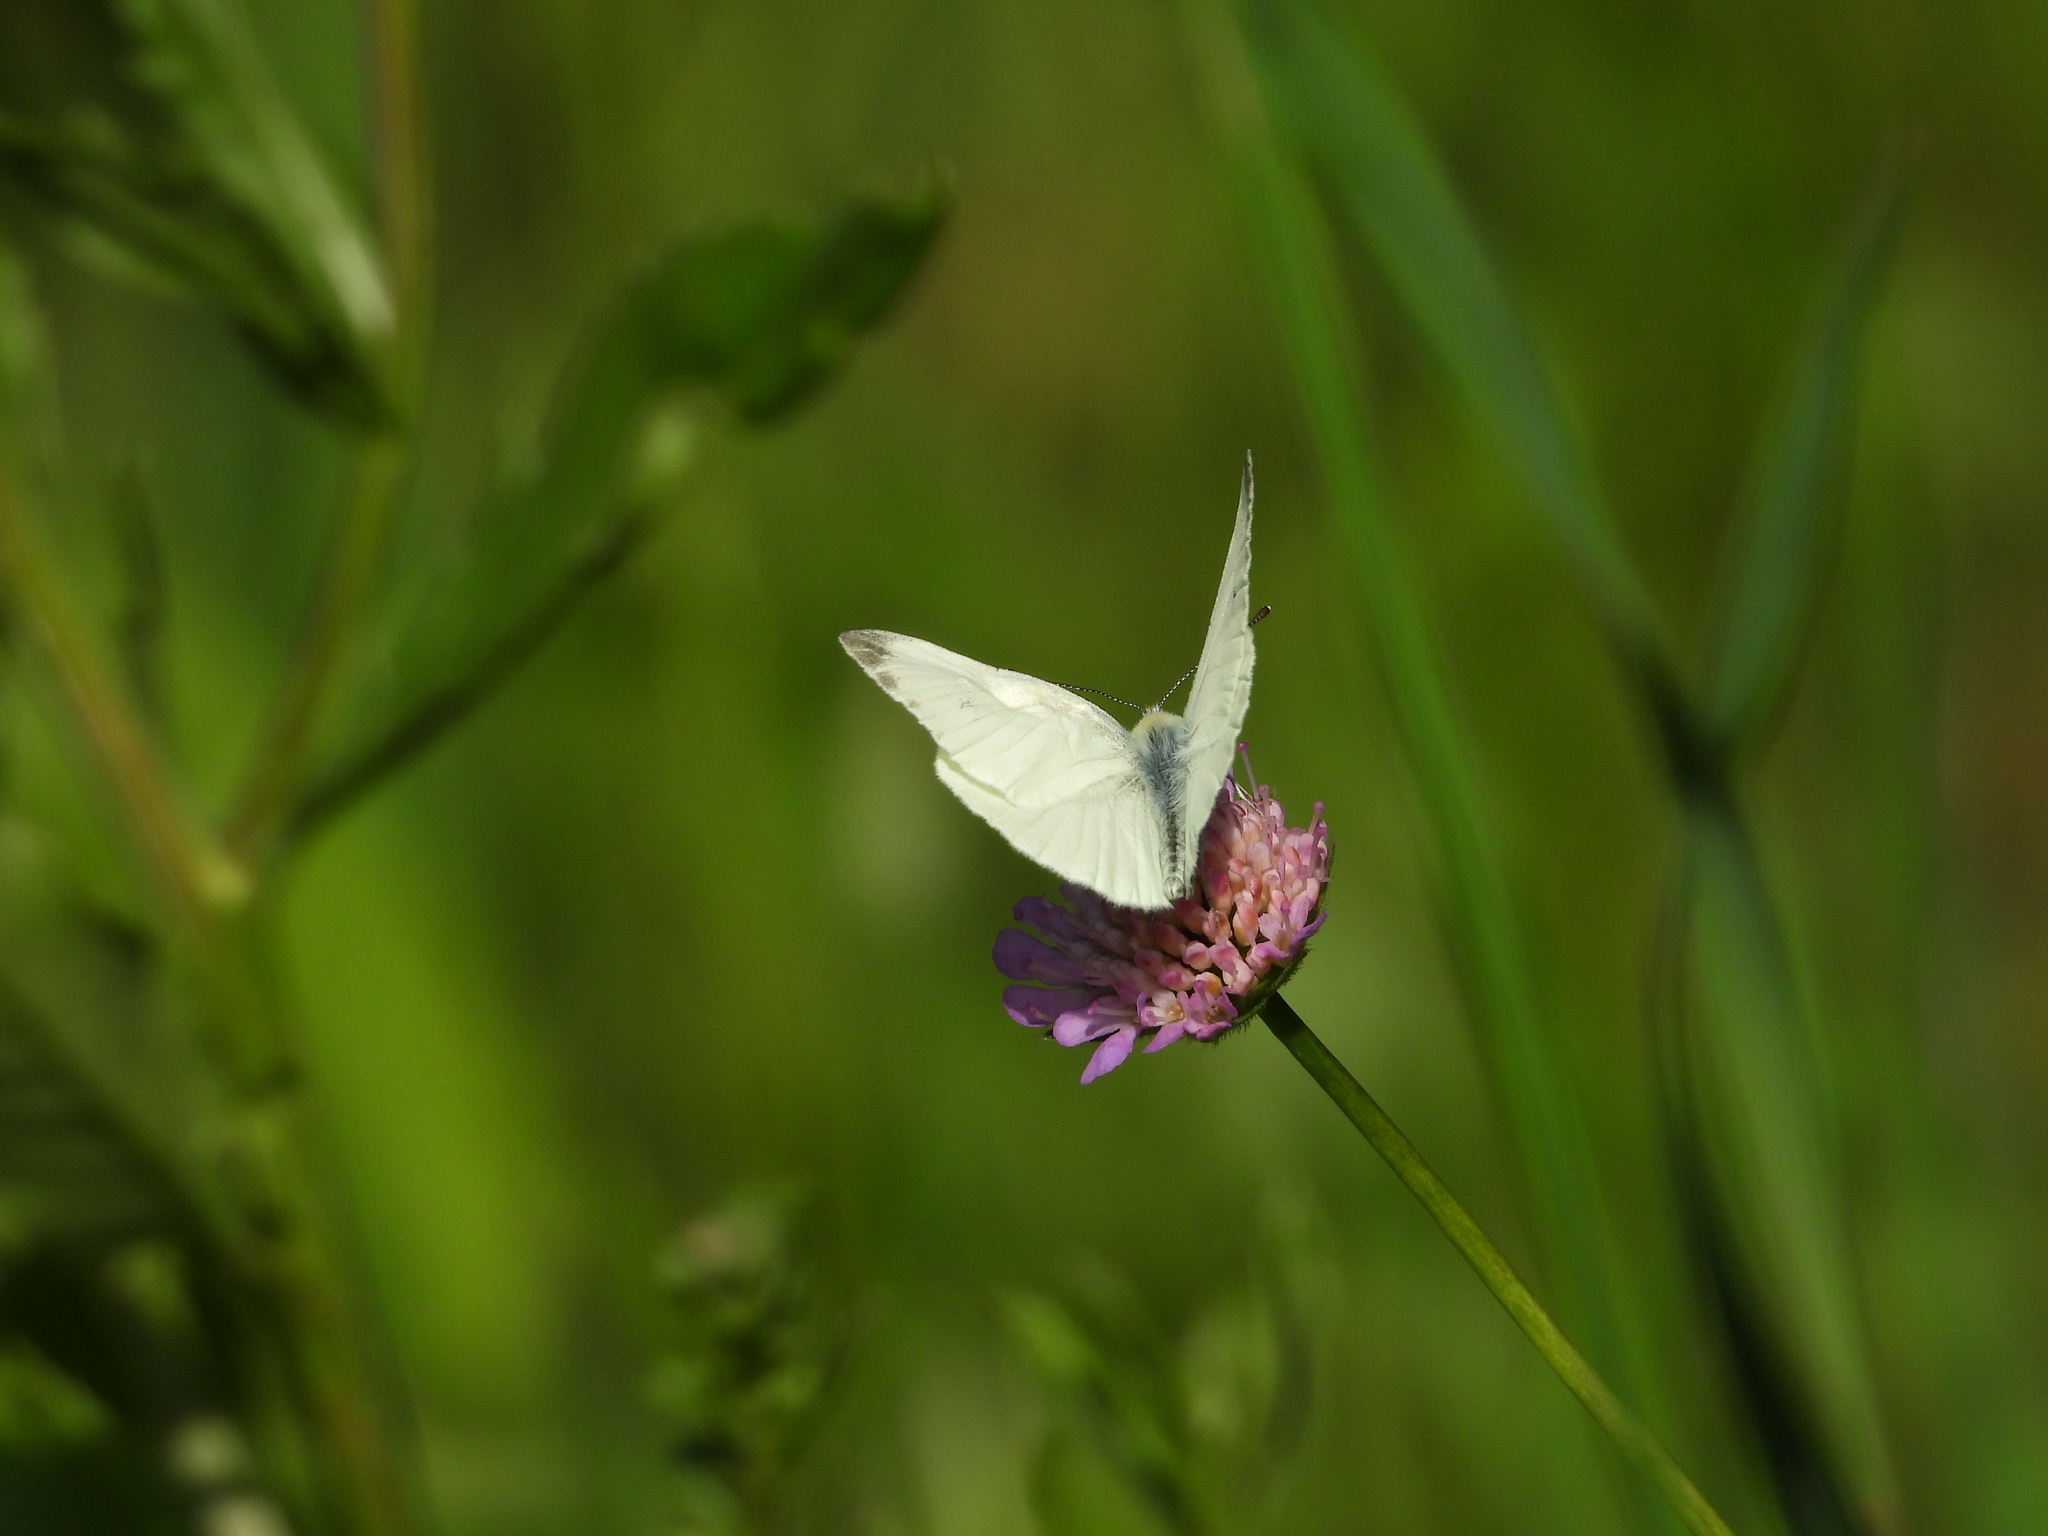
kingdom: Animalia
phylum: Arthropoda
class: Insecta
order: Lepidoptera
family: Pieridae
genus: Pieris
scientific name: Pieris napi
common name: Green-veined white
